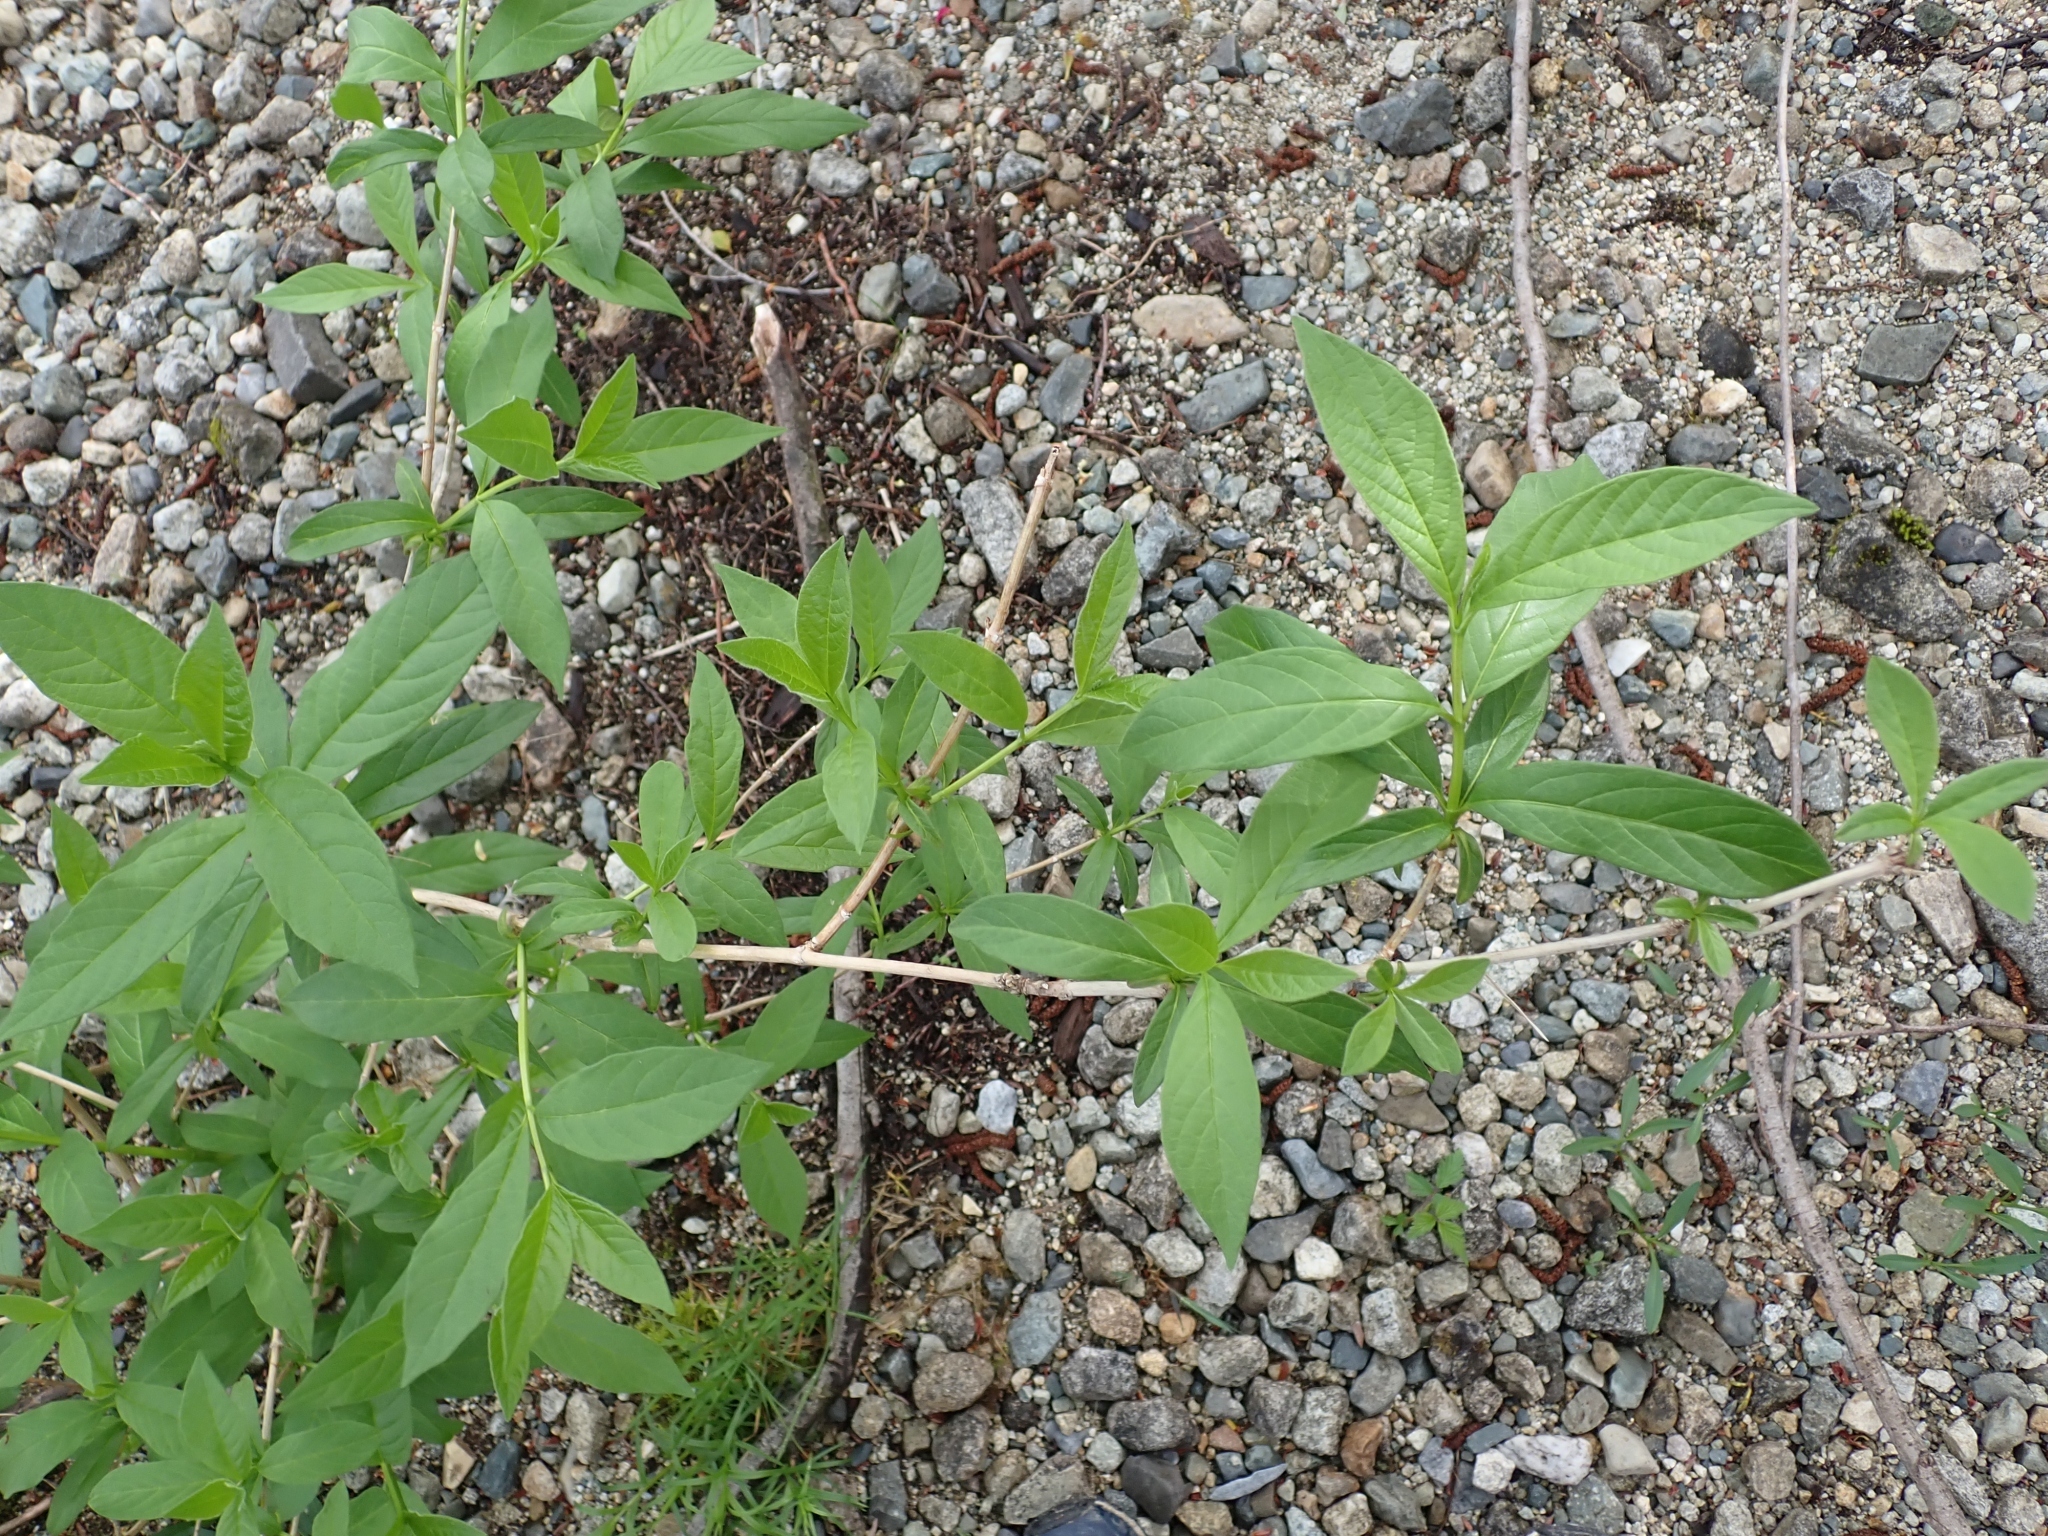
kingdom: Plantae
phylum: Tracheophyta
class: Magnoliopsida
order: Dipsacales
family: Caprifoliaceae
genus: Lonicera
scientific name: Lonicera involucrata
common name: Californian honeysuckle
